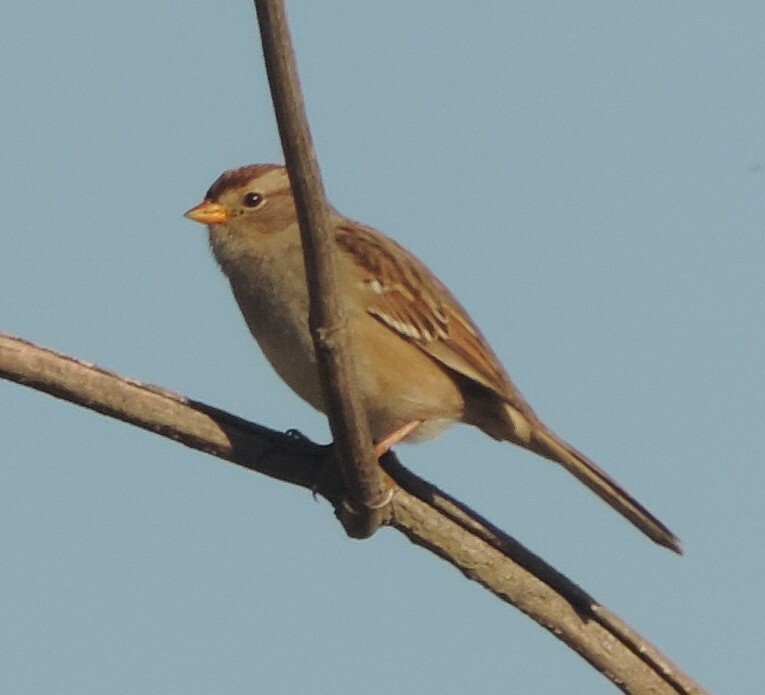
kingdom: Animalia
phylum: Chordata
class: Aves
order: Passeriformes
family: Passerellidae
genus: Zonotrichia
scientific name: Zonotrichia leucophrys
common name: White-crowned sparrow
